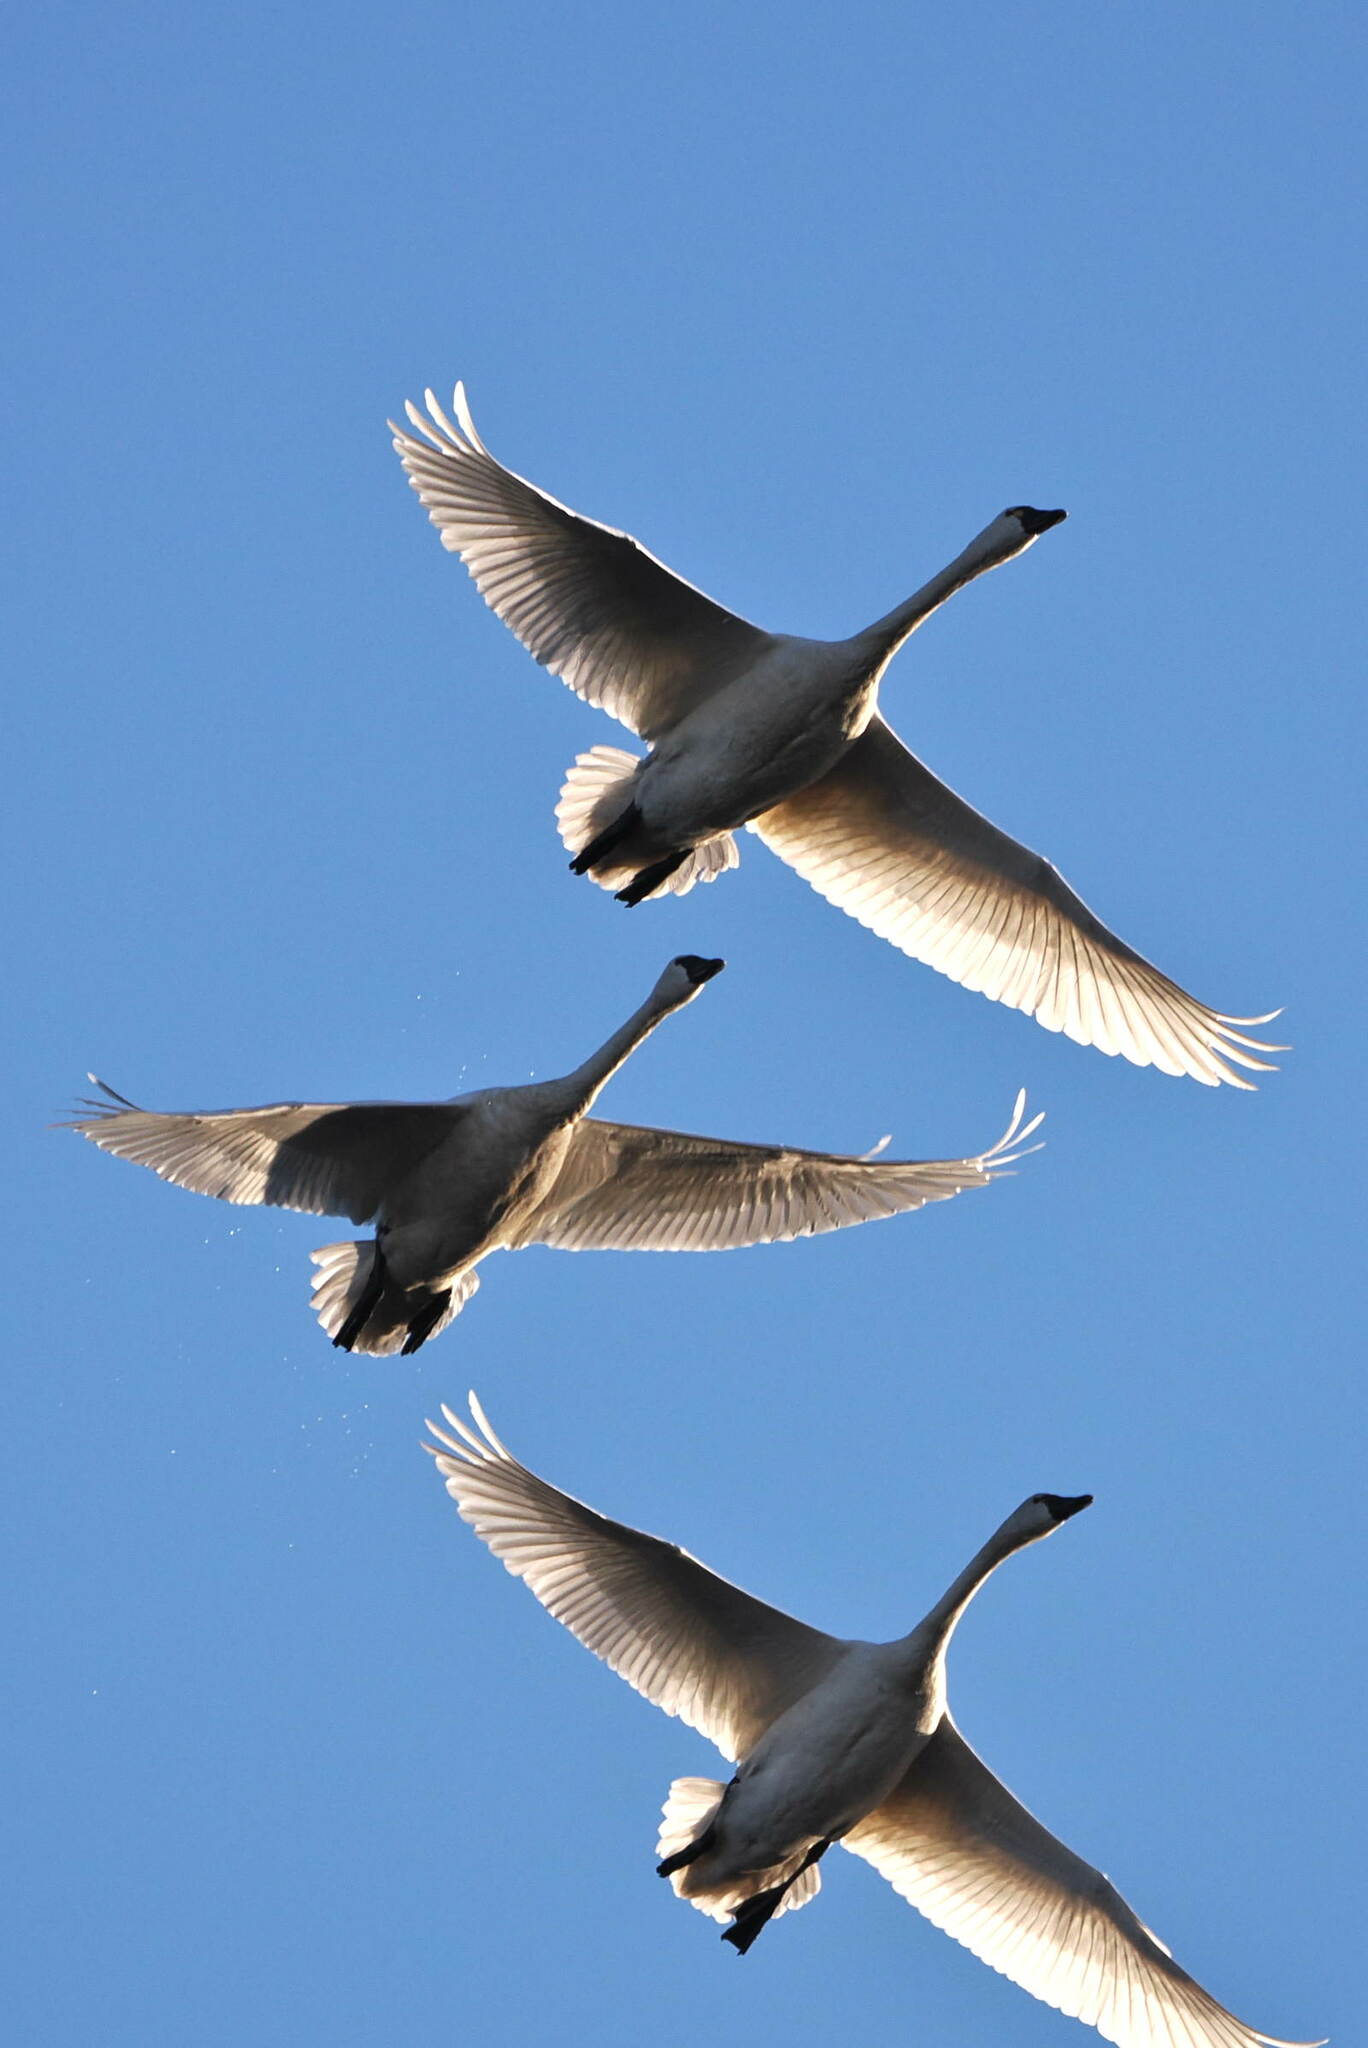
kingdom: Animalia
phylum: Chordata
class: Aves
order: Anseriformes
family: Anatidae
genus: Cygnus
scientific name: Cygnus columbianus
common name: Tundra swan
